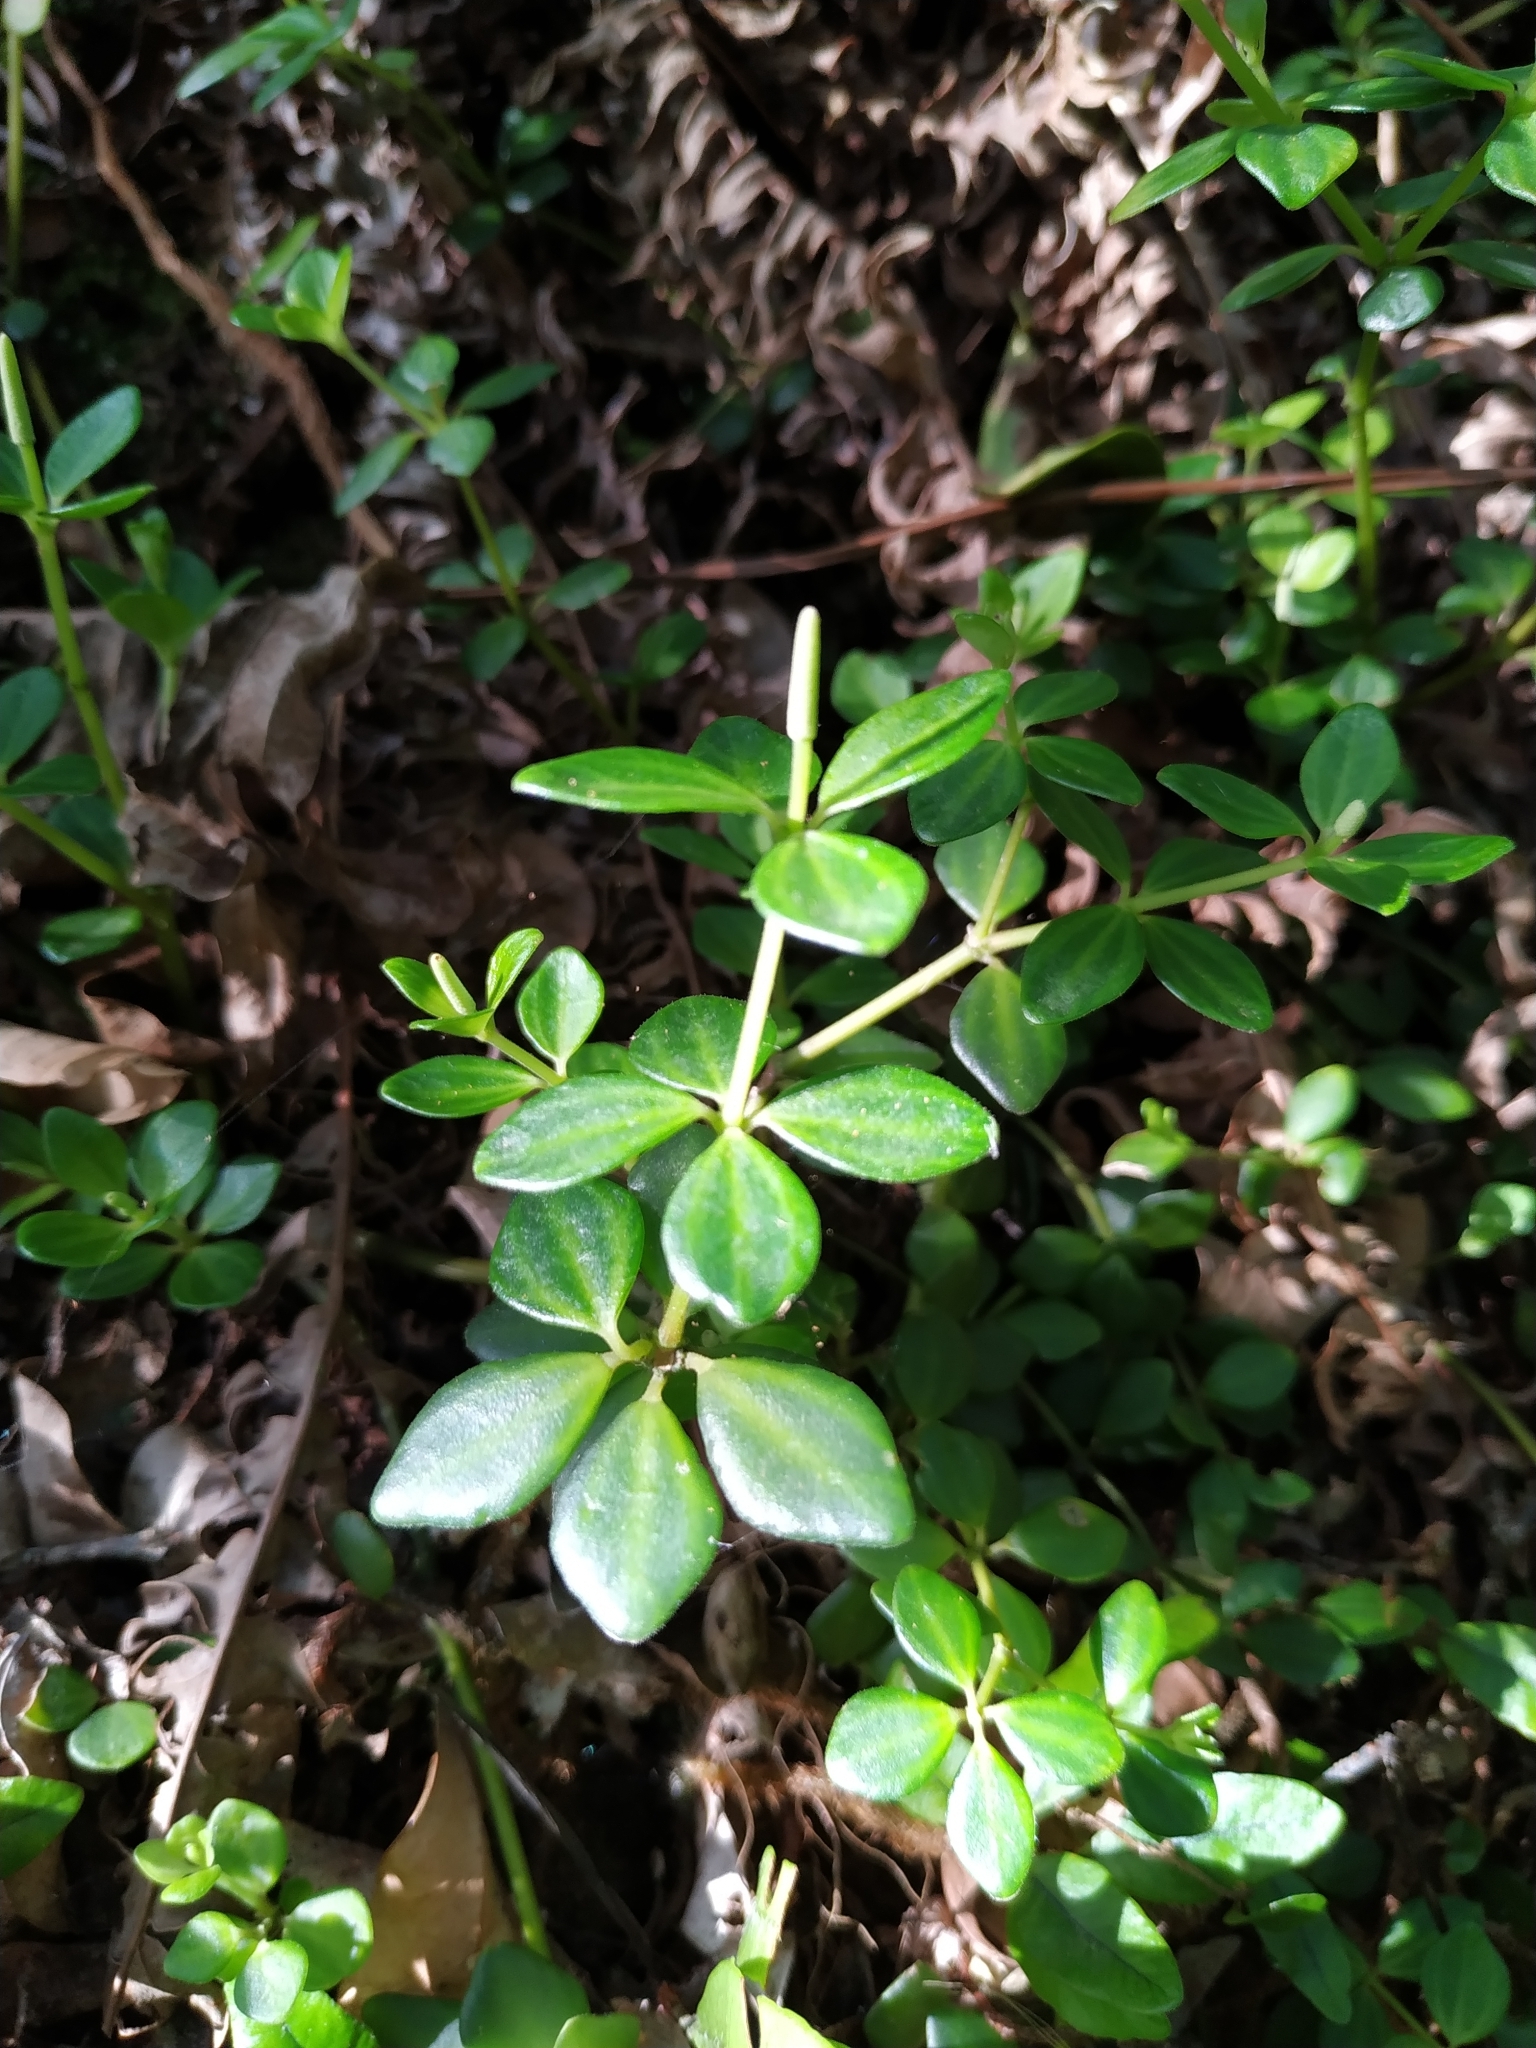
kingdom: Plantae
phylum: Tracheophyta
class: Magnoliopsida
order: Piperales
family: Piperaceae
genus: Peperomia
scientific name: Peperomia tetraphylla
